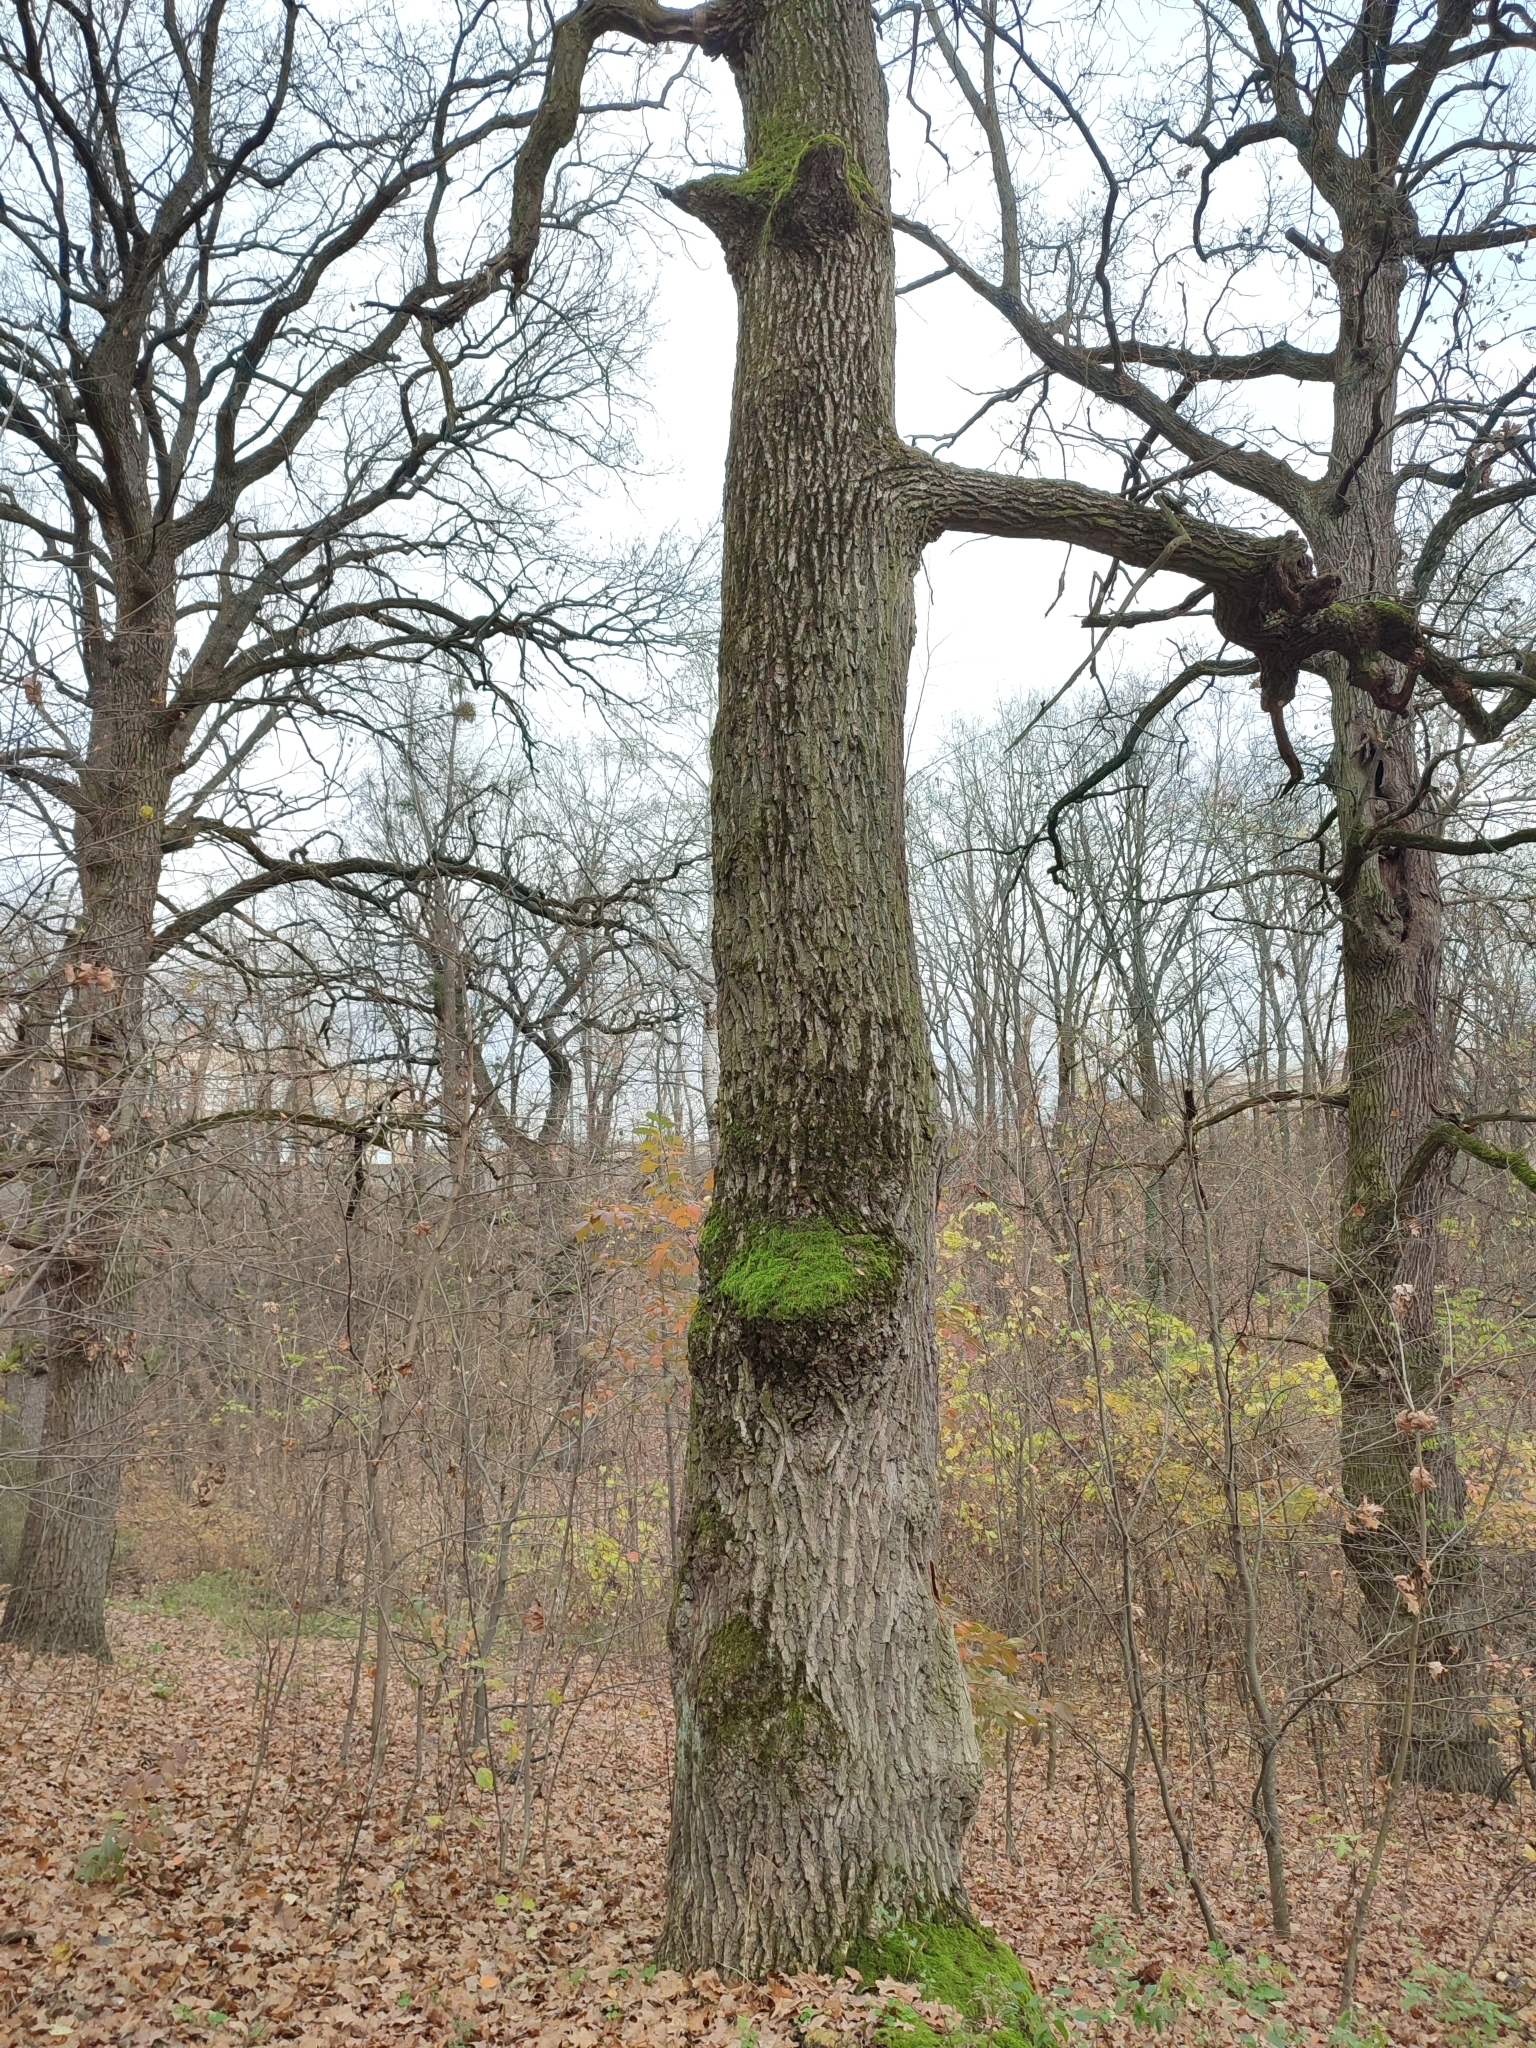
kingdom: Plantae
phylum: Tracheophyta
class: Magnoliopsida
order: Fagales
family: Fagaceae
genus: Quercus
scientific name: Quercus robur
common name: Pedunculate oak
